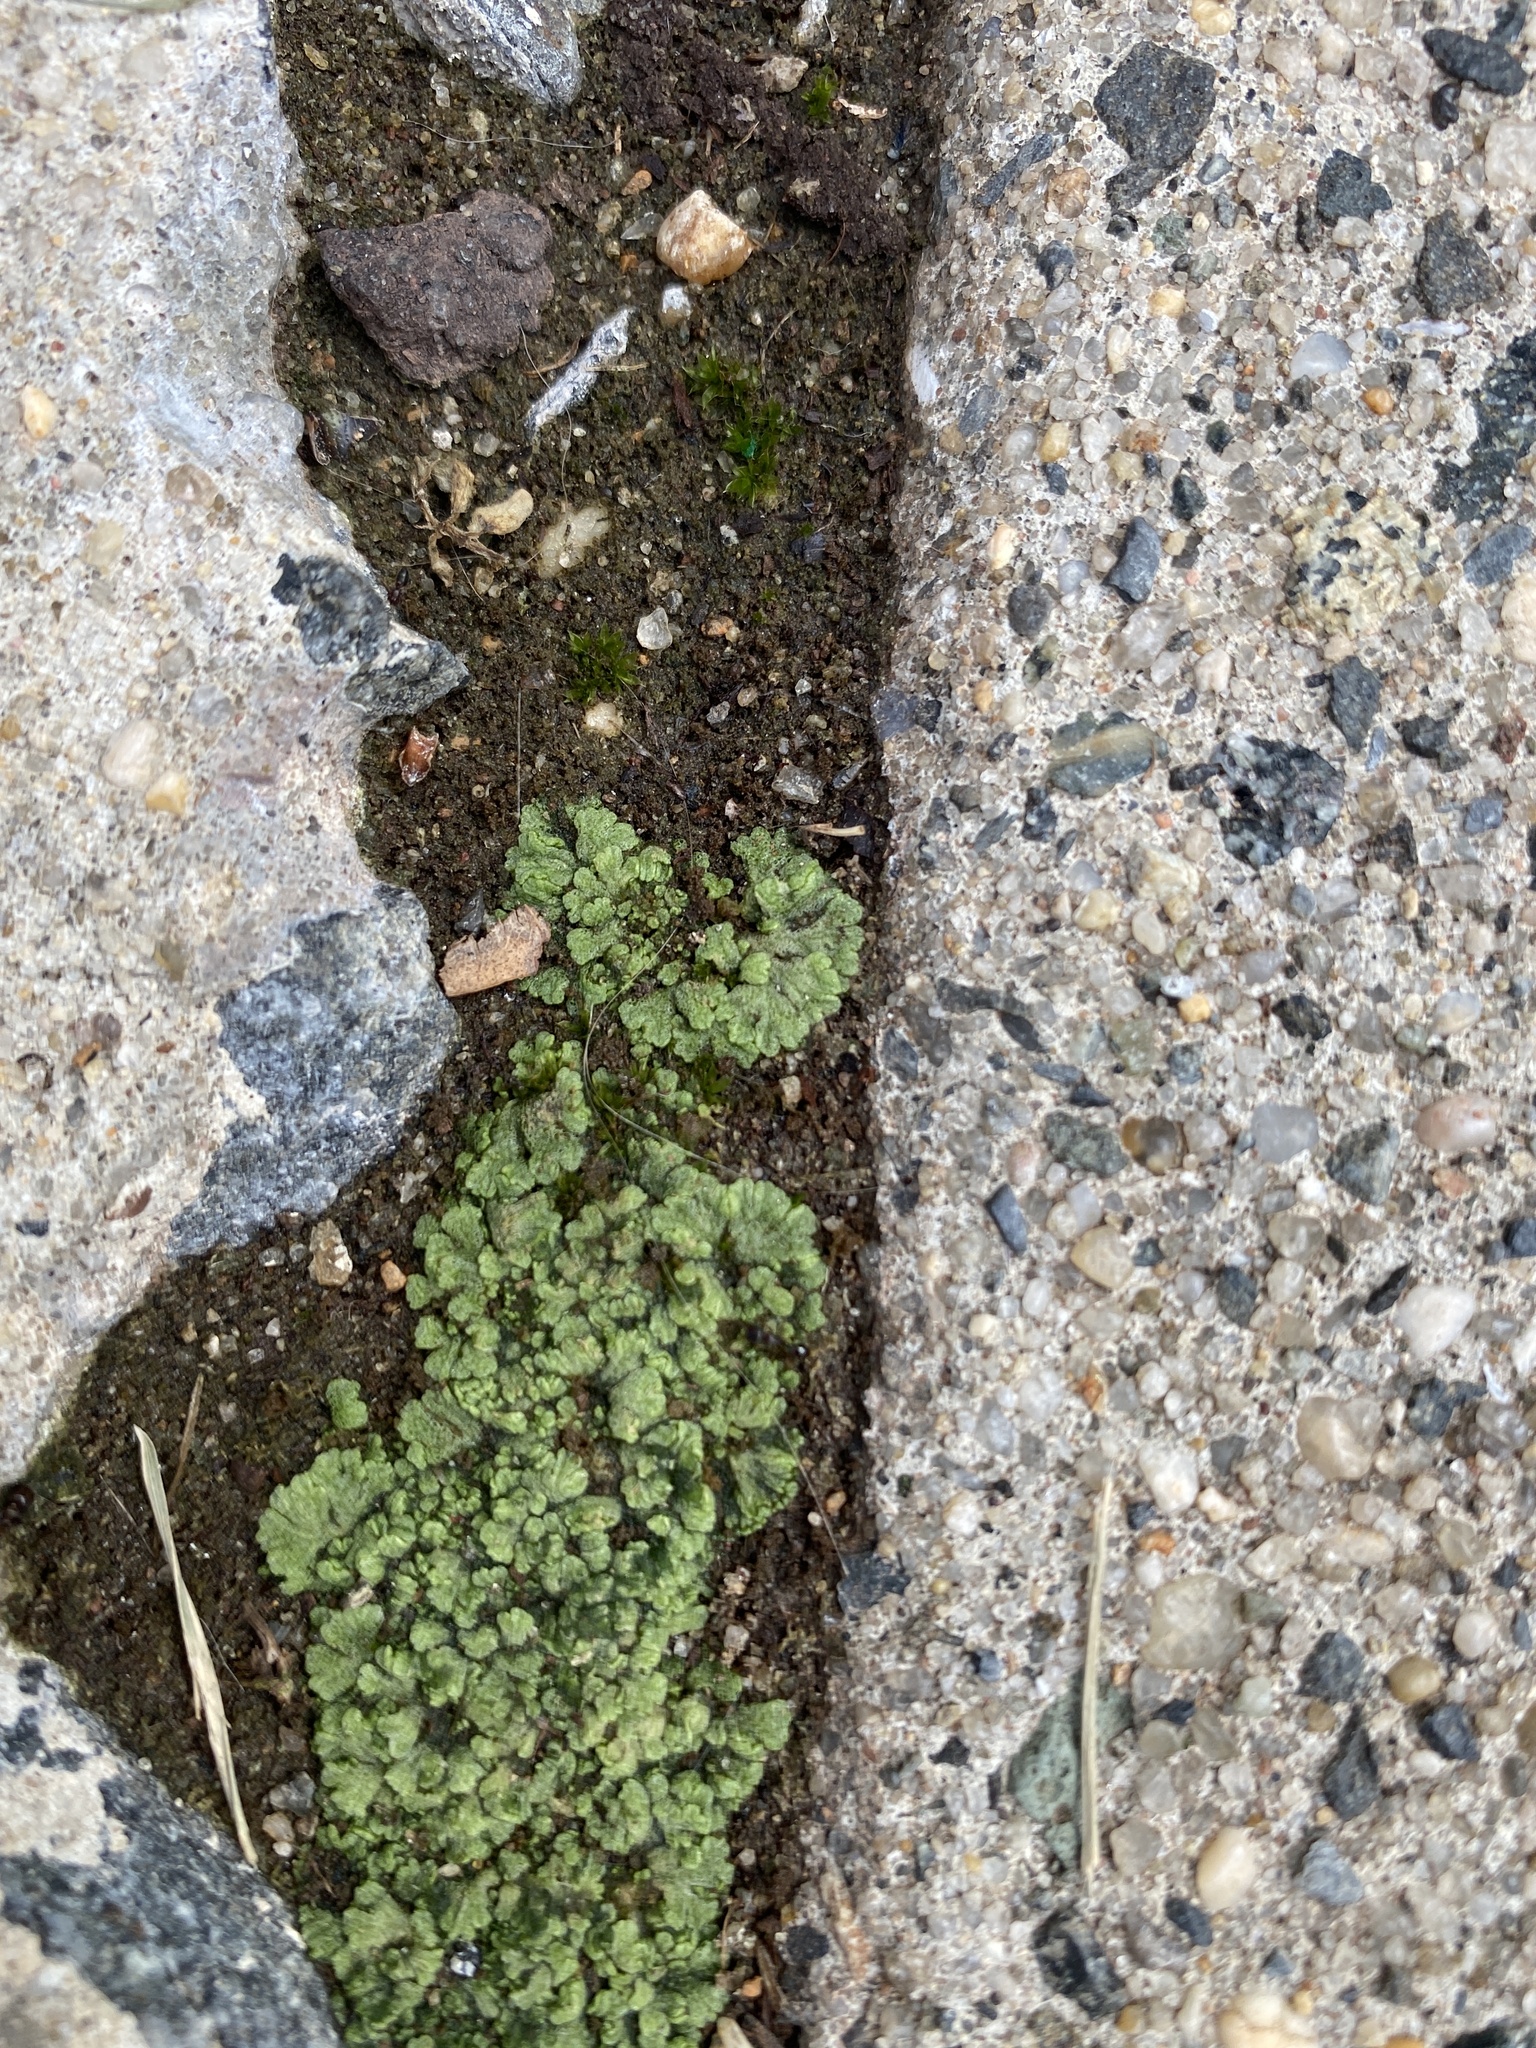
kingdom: Plantae
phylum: Marchantiophyta
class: Marchantiopsida
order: Marchantiales
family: Ricciaceae
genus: Riccia
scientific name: Riccia cavernosa
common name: Cavernous crystalwort
